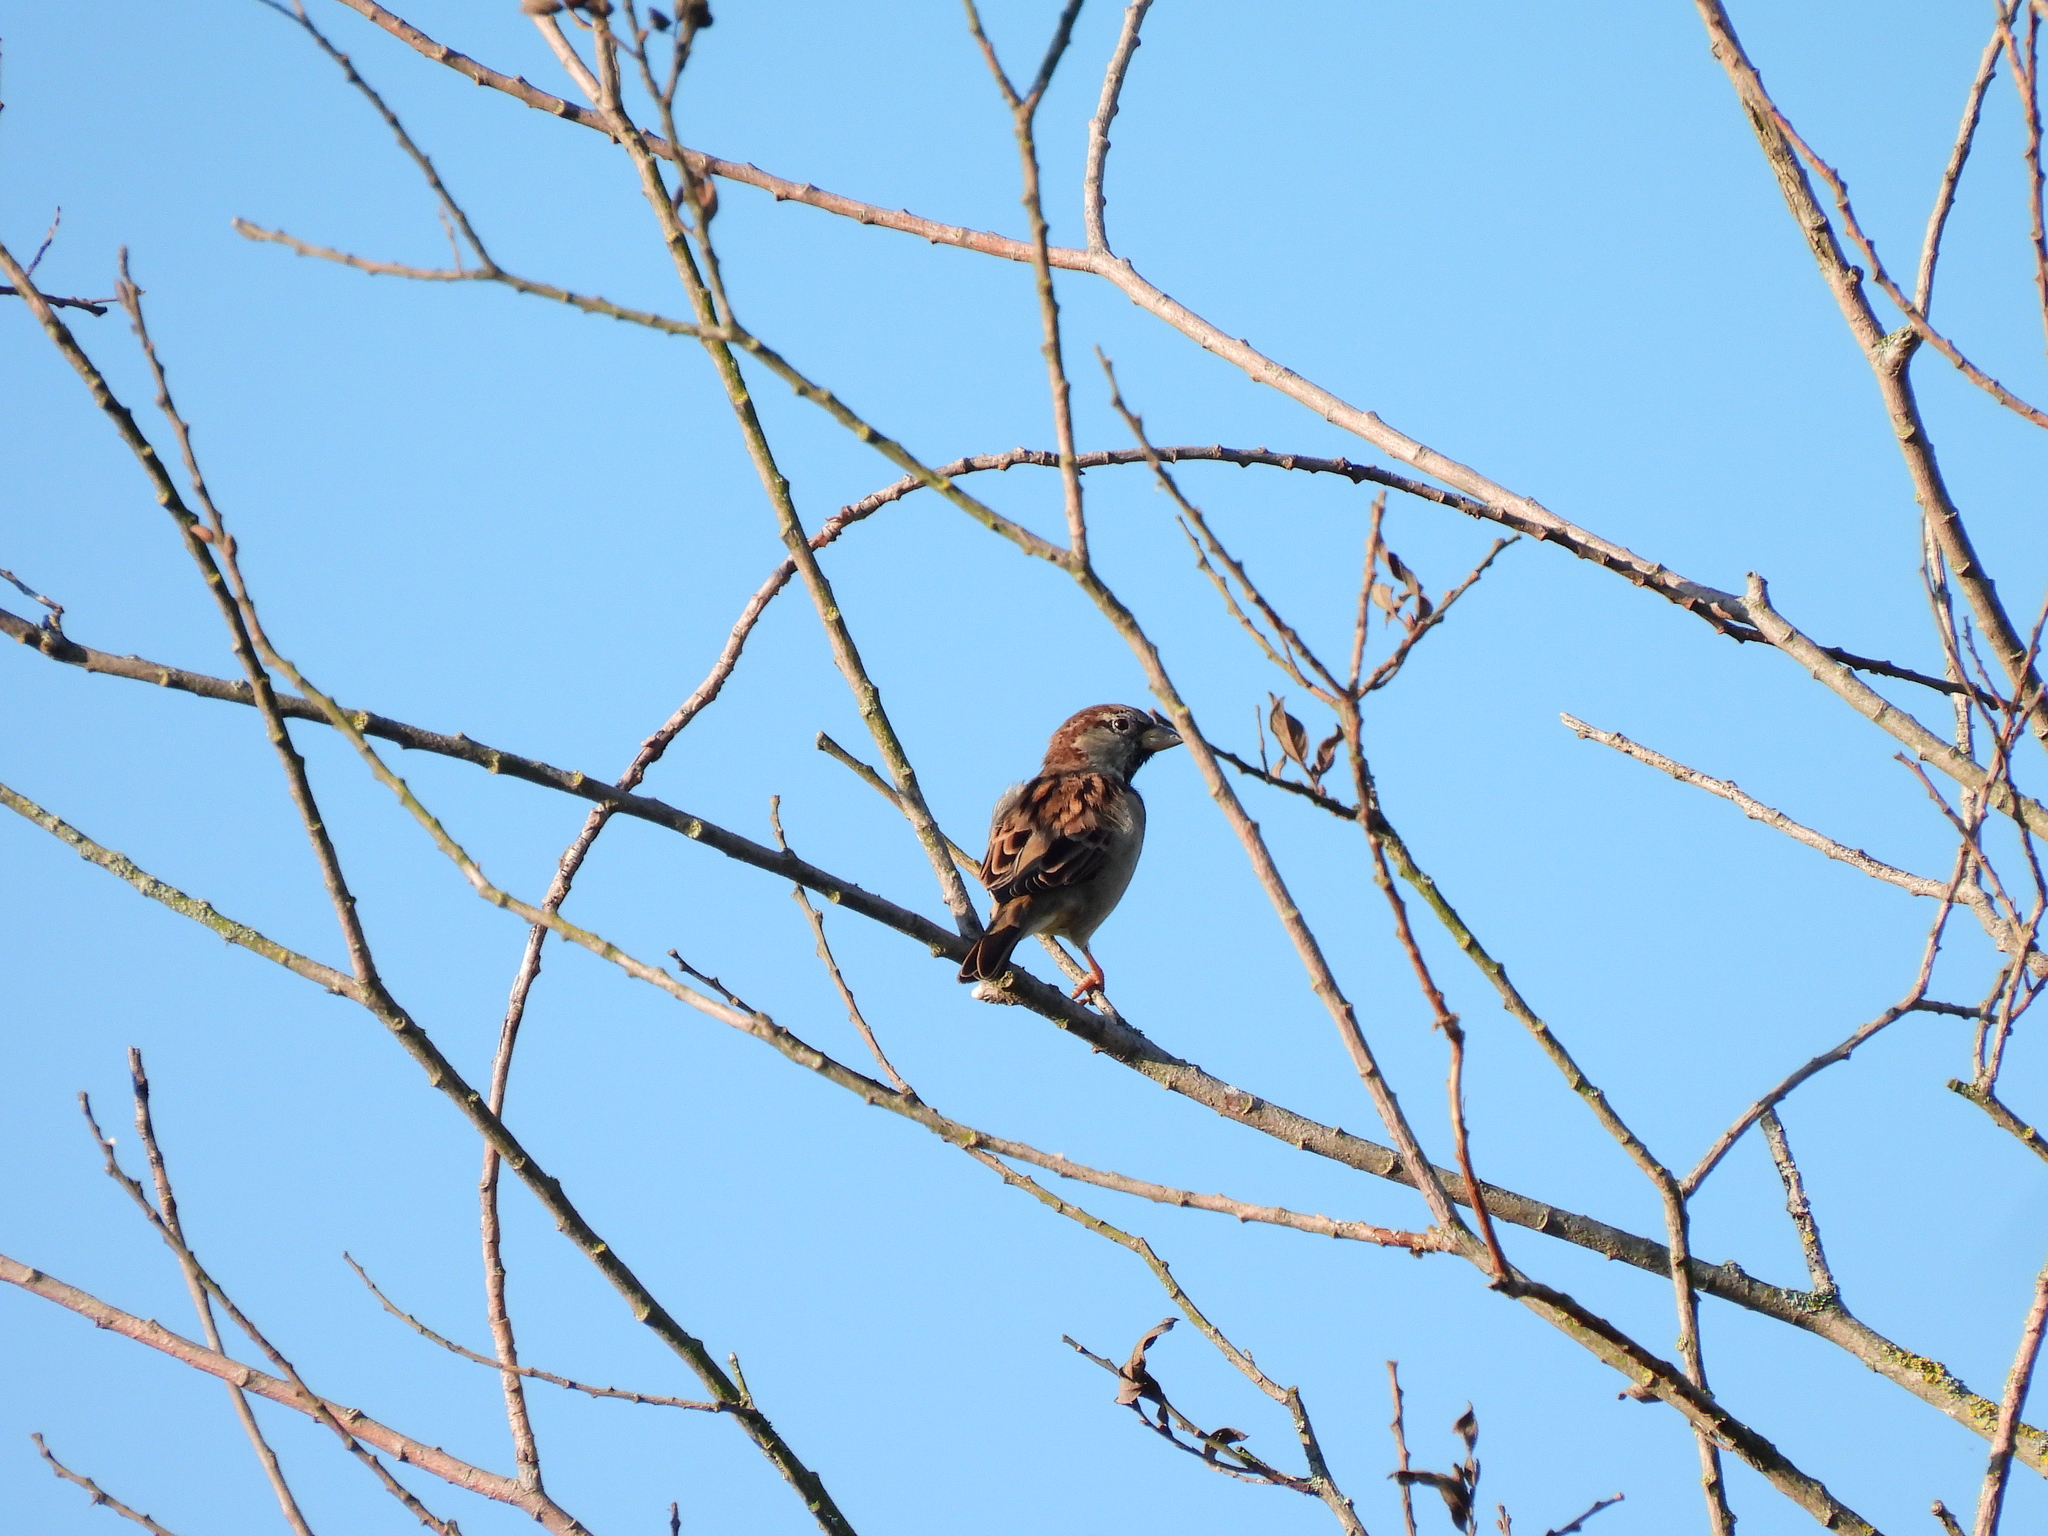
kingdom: Animalia
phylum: Chordata
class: Aves
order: Passeriformes
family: Passeridae
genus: Passer
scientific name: Passer domesticus
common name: House sparrow
